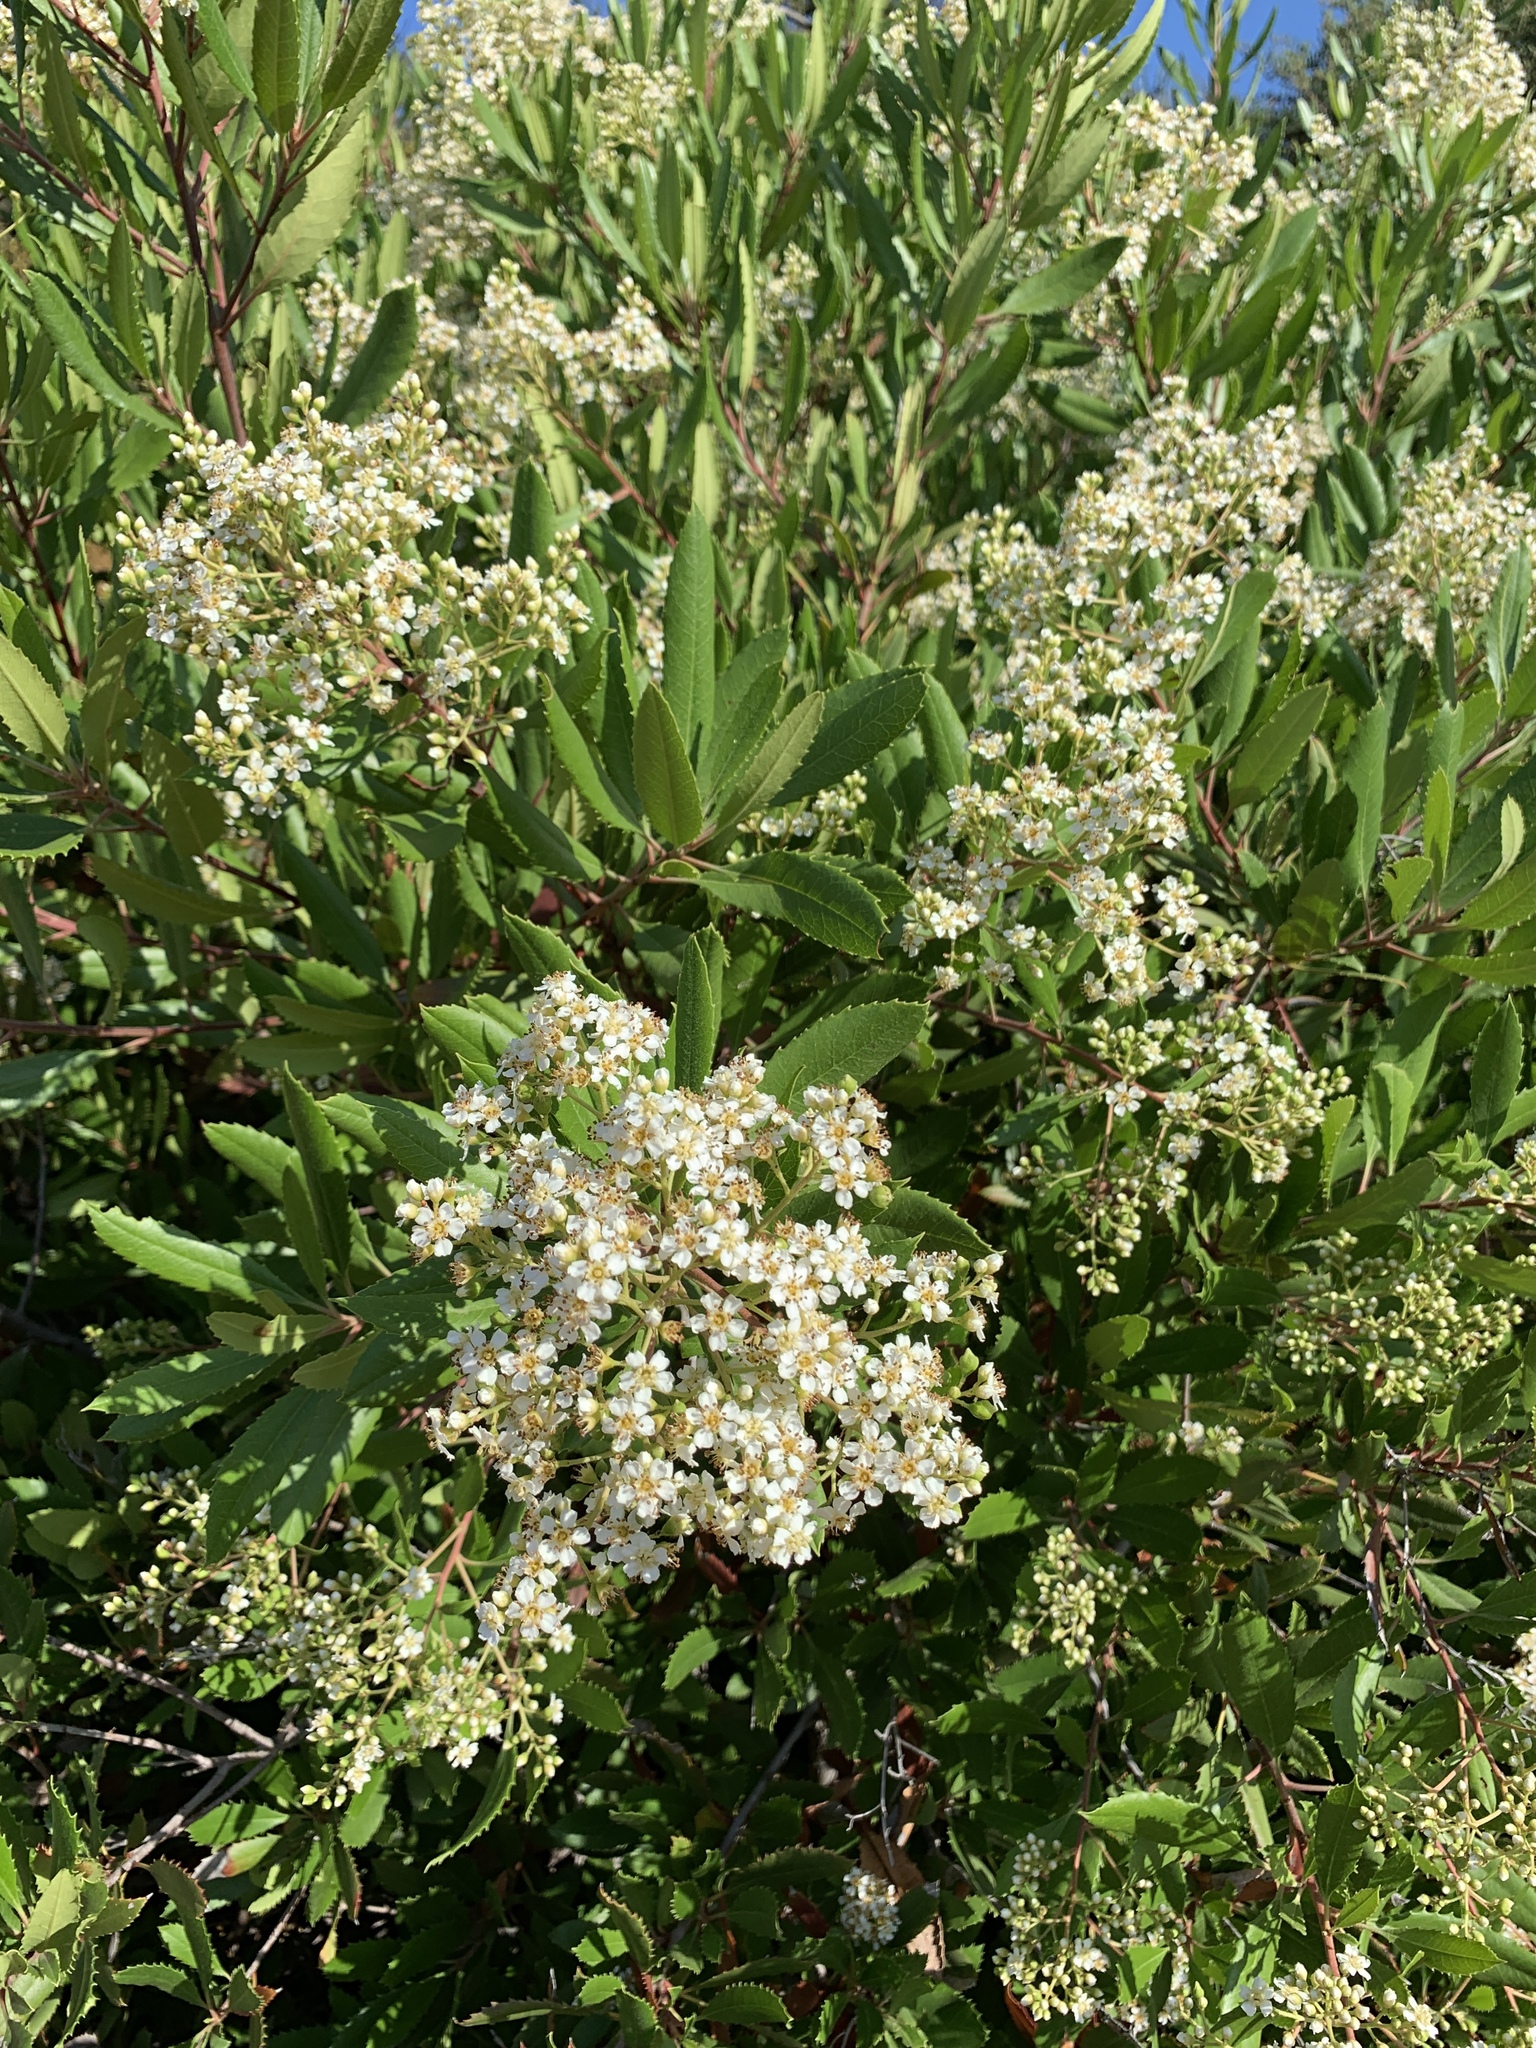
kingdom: Plantae
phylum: Tracheophyta
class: Magnoliopsida
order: Rosales
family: Rosaceae
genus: Heteromeles
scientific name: Heteromeles arbutifolia
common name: California-holly
